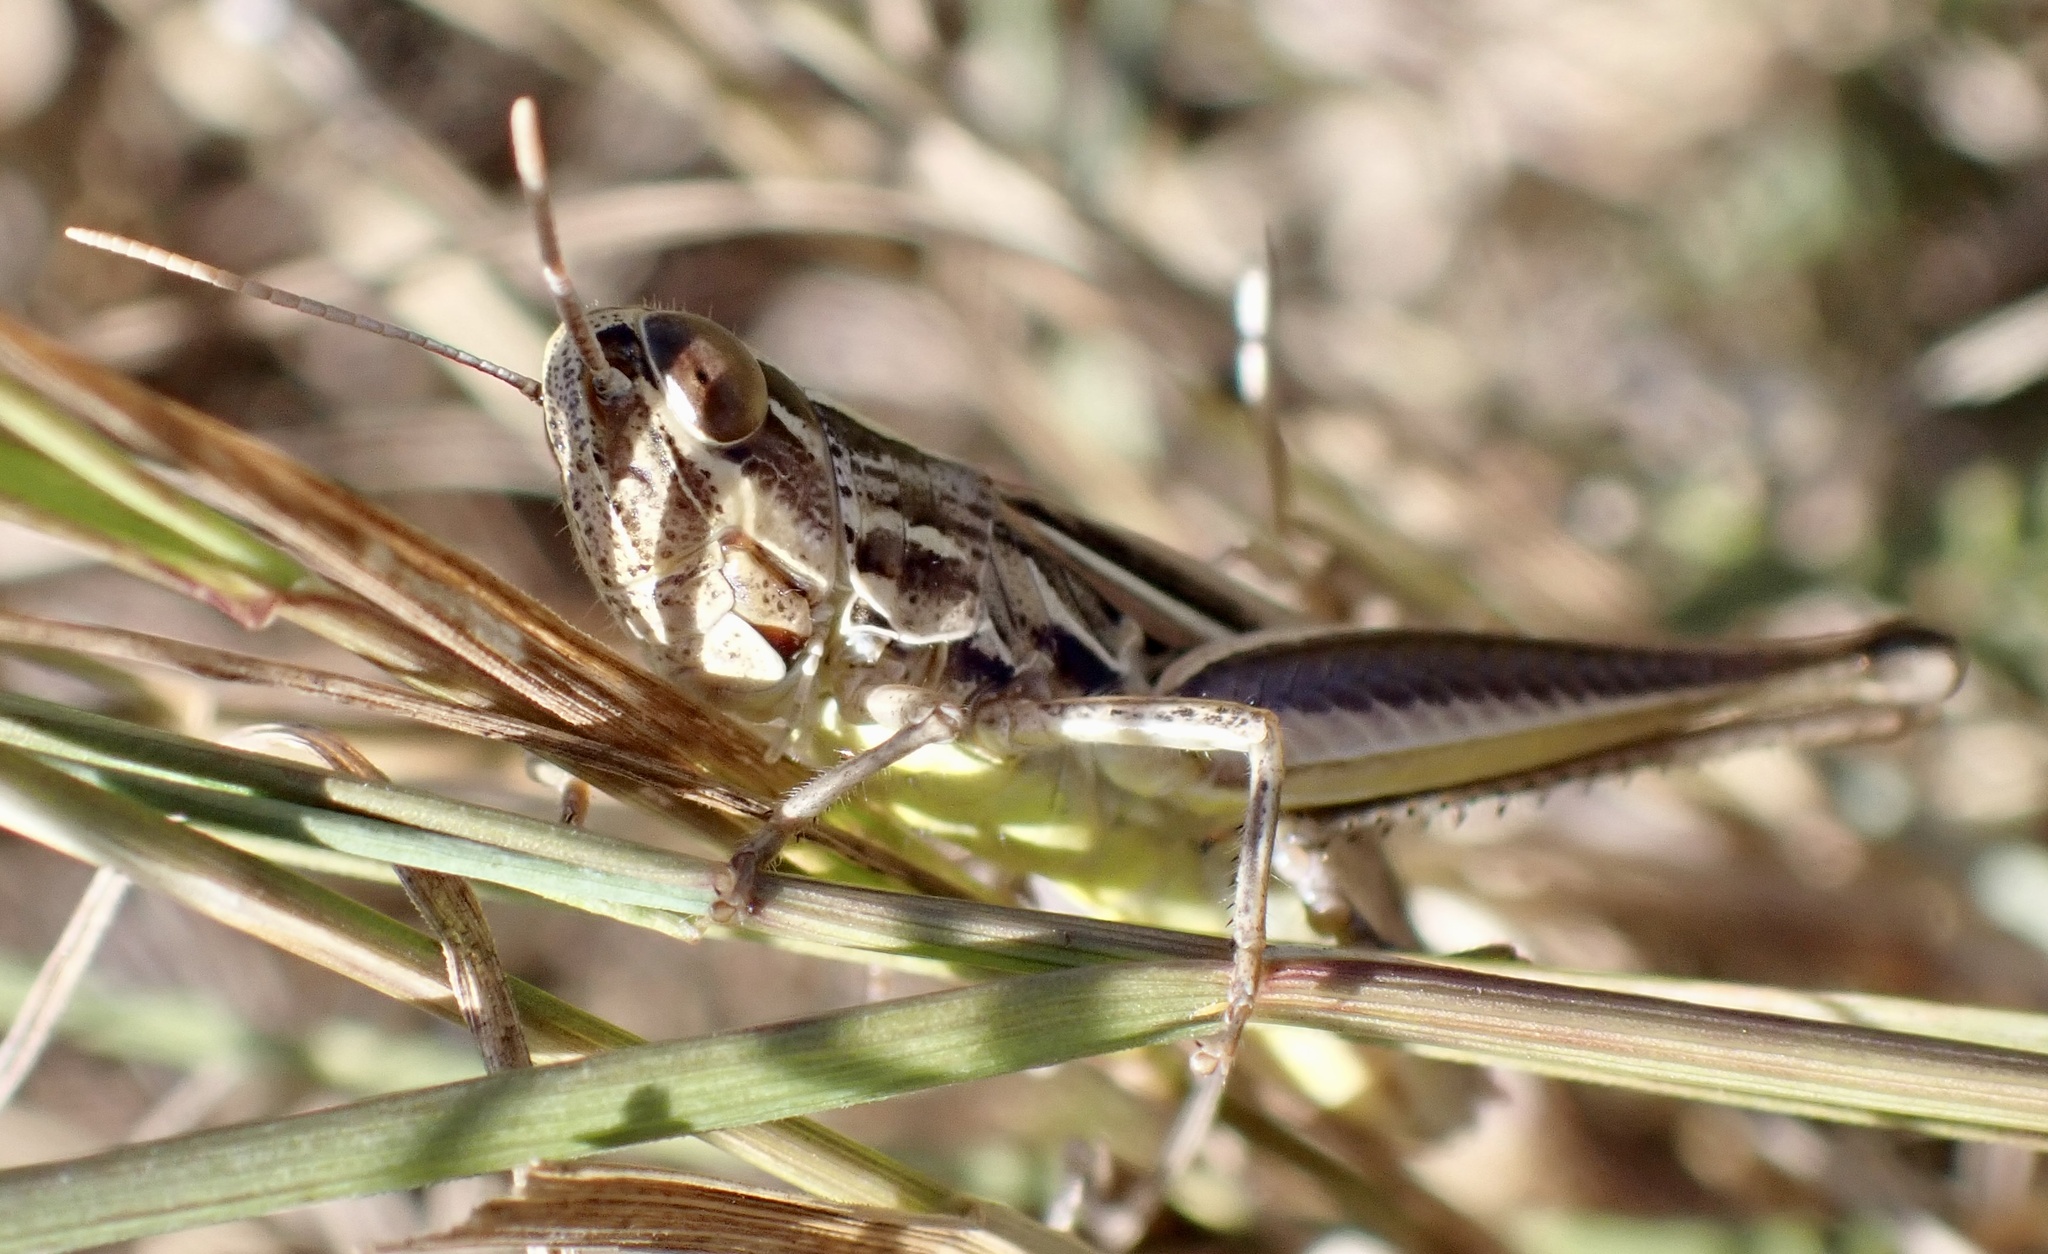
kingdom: Animalia
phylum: Arthropoda
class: Insecta
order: Orthoptera
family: Acrididae
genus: Euchorthippus
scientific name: Euchorthippus declivus
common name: Common straw grasshopper
